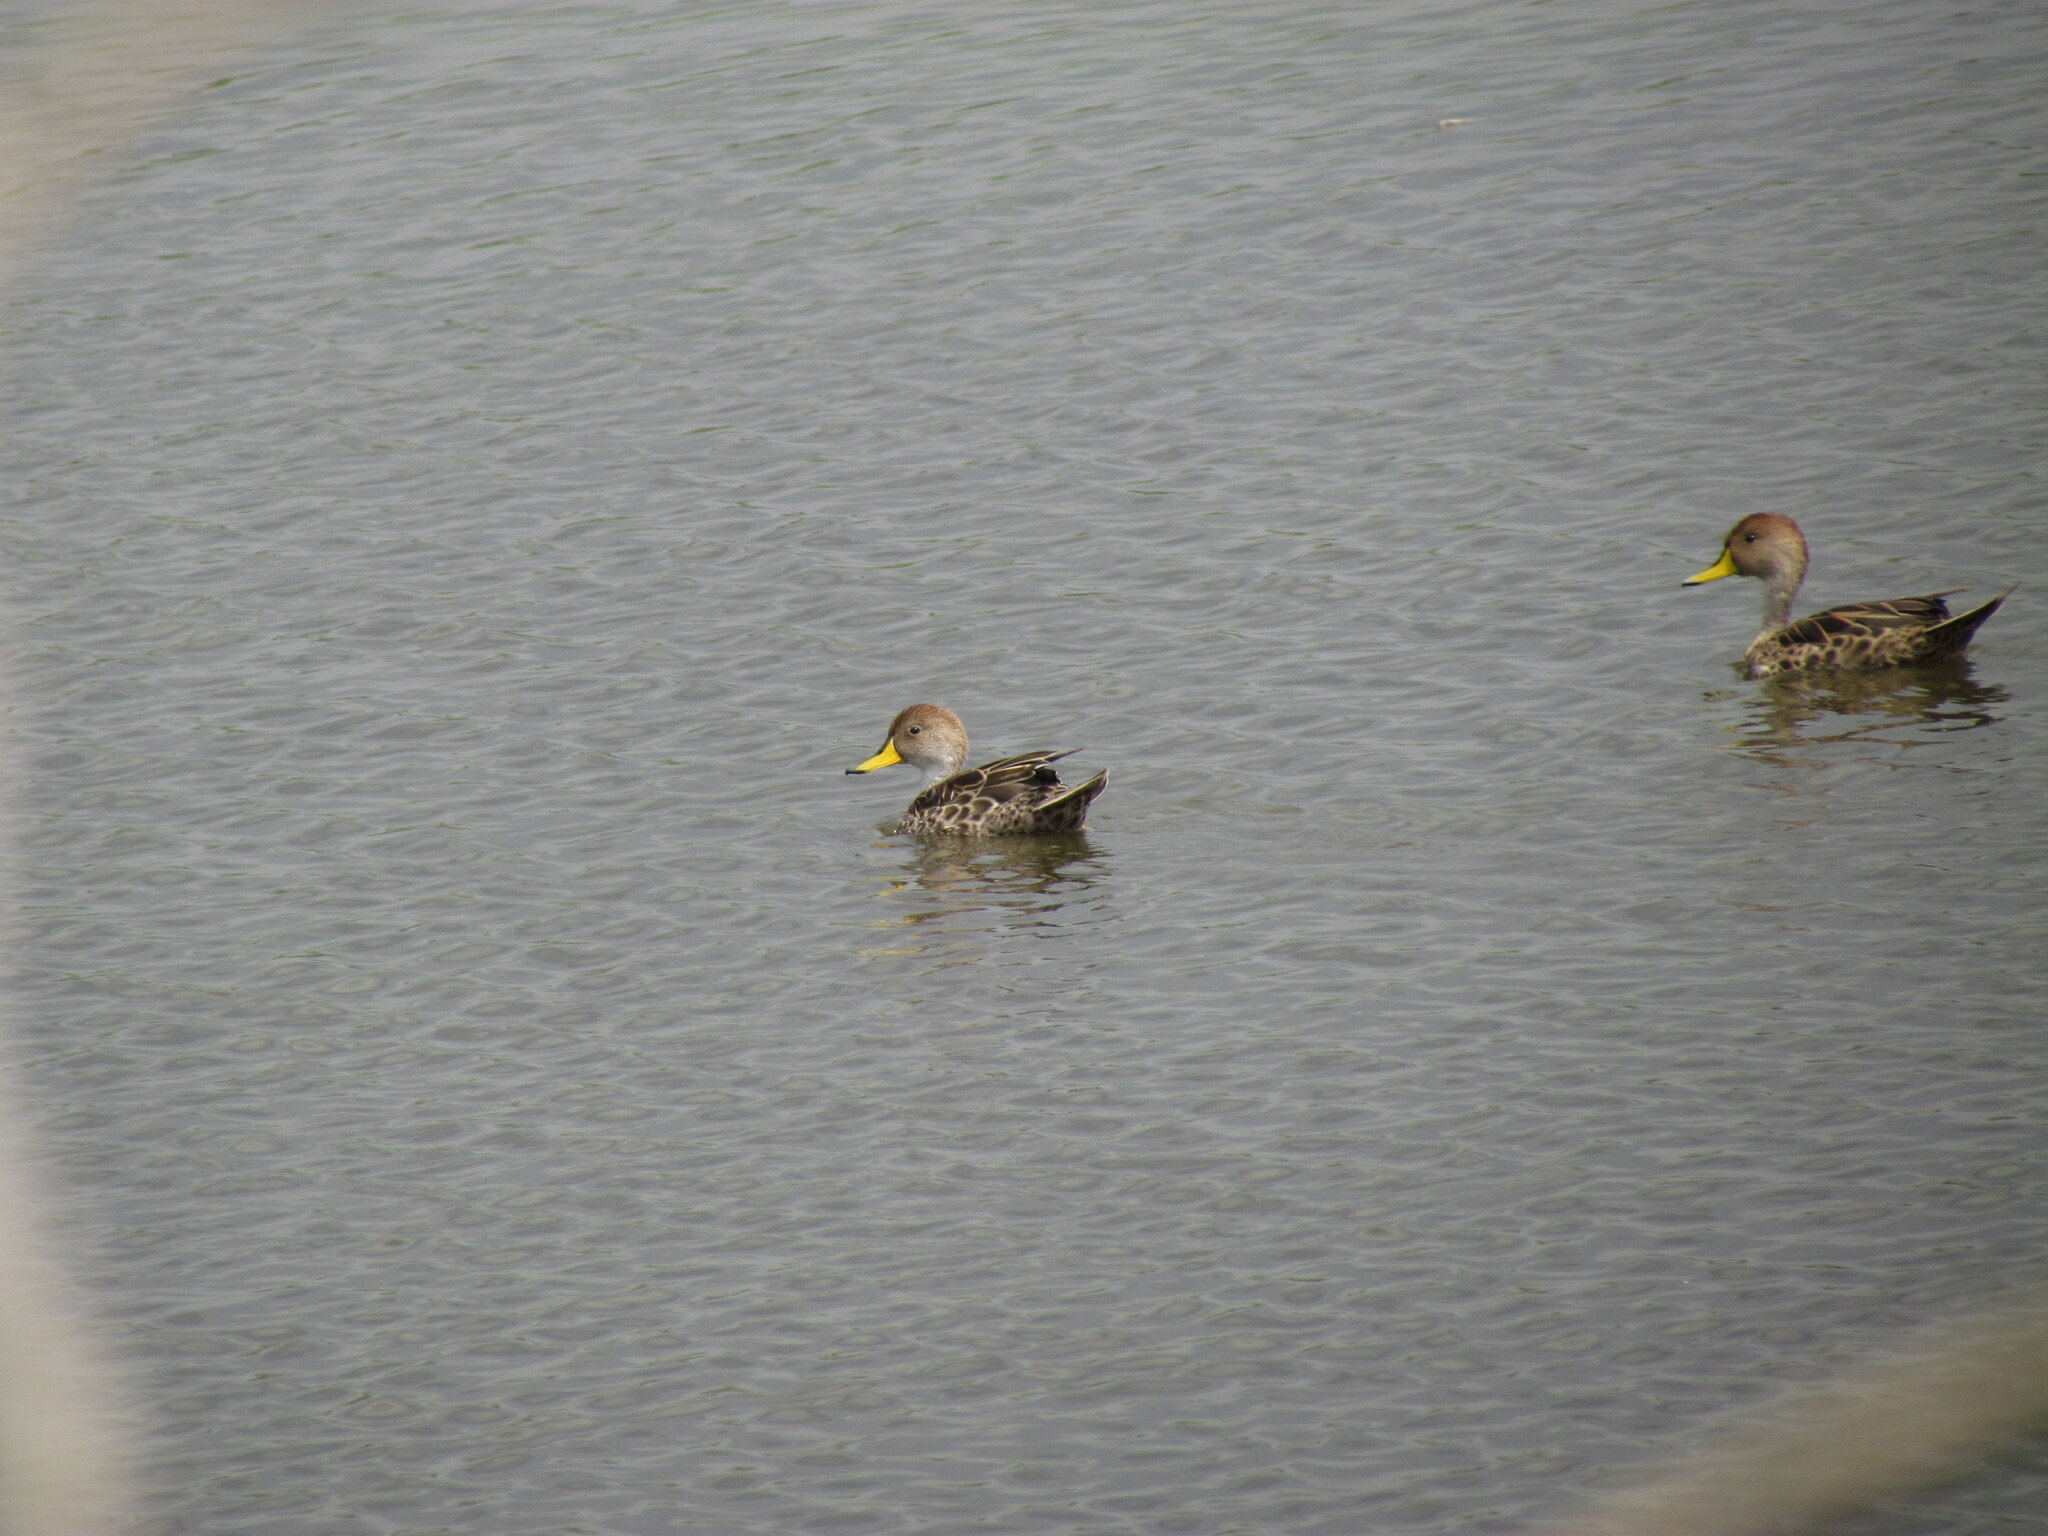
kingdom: Animalia
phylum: Chordata
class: Aves
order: Anseriformes
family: Anatidae
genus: Anas
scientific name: Anas georgica
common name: Yellow-billed pintail
